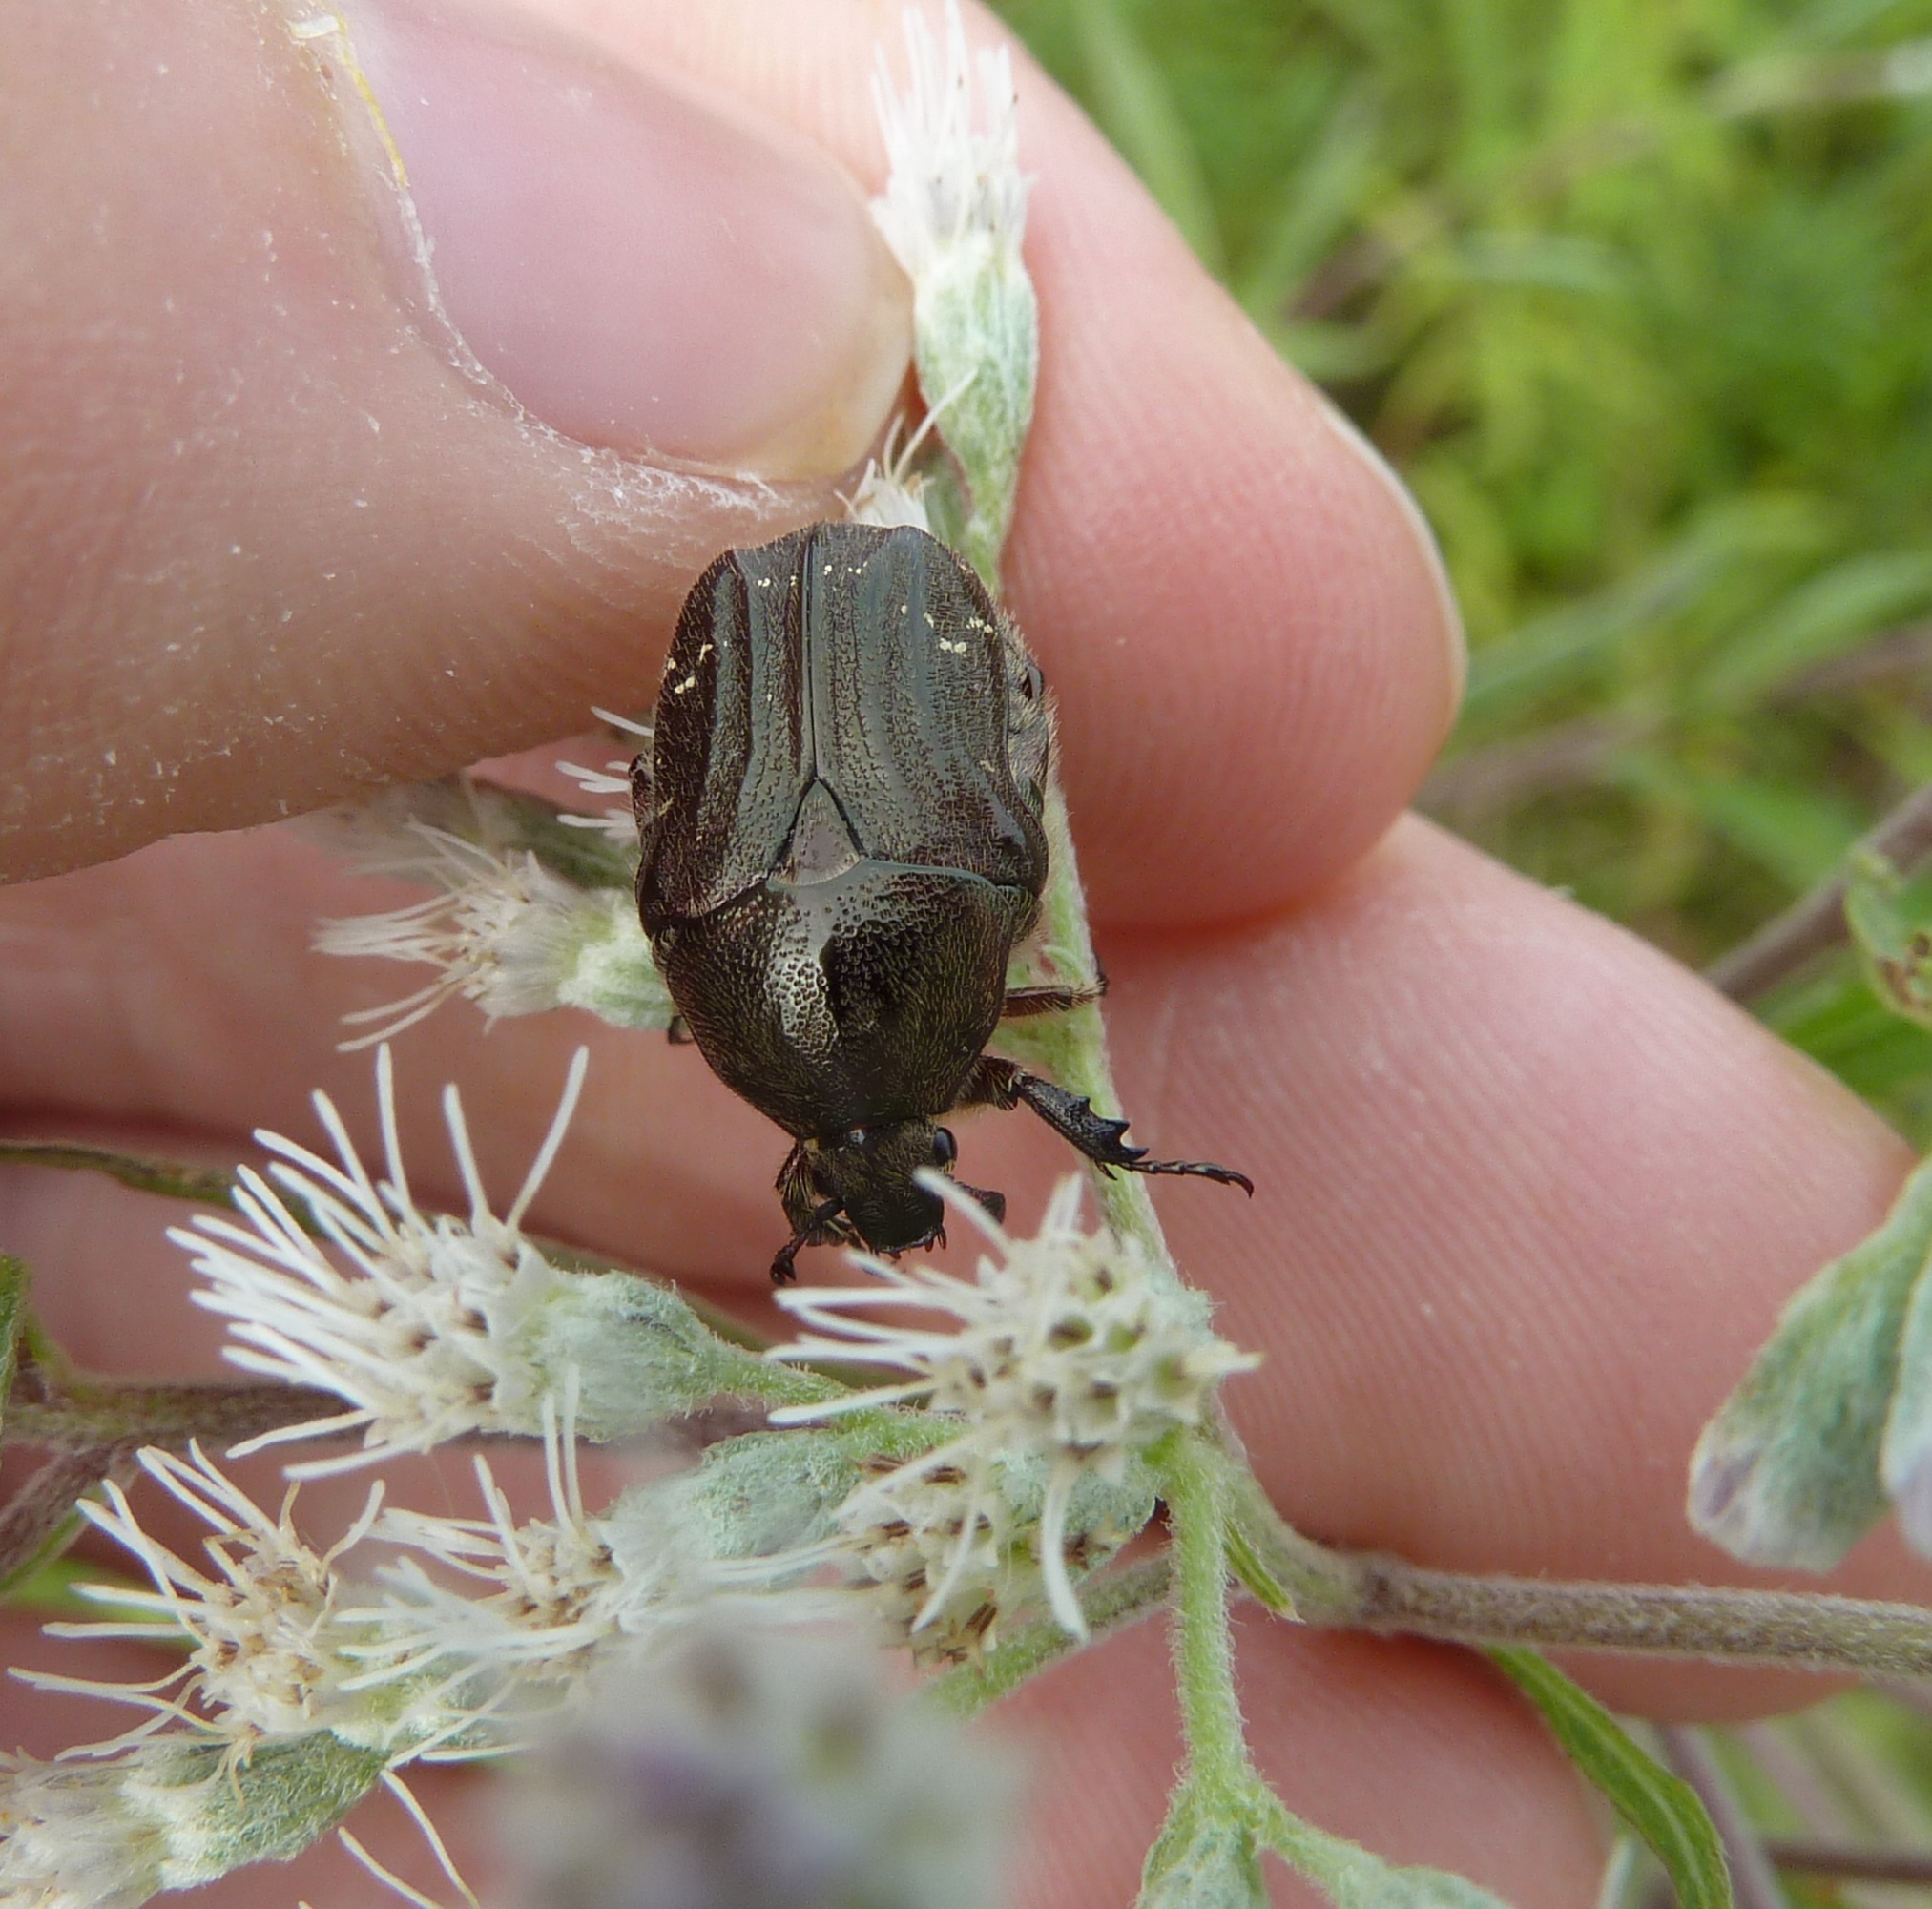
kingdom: Animalia
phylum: Arthropoda
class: Insecta
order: Coleoptera
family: Scarabaeidae
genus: Euphoria
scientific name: Euphoria sepulcralis
